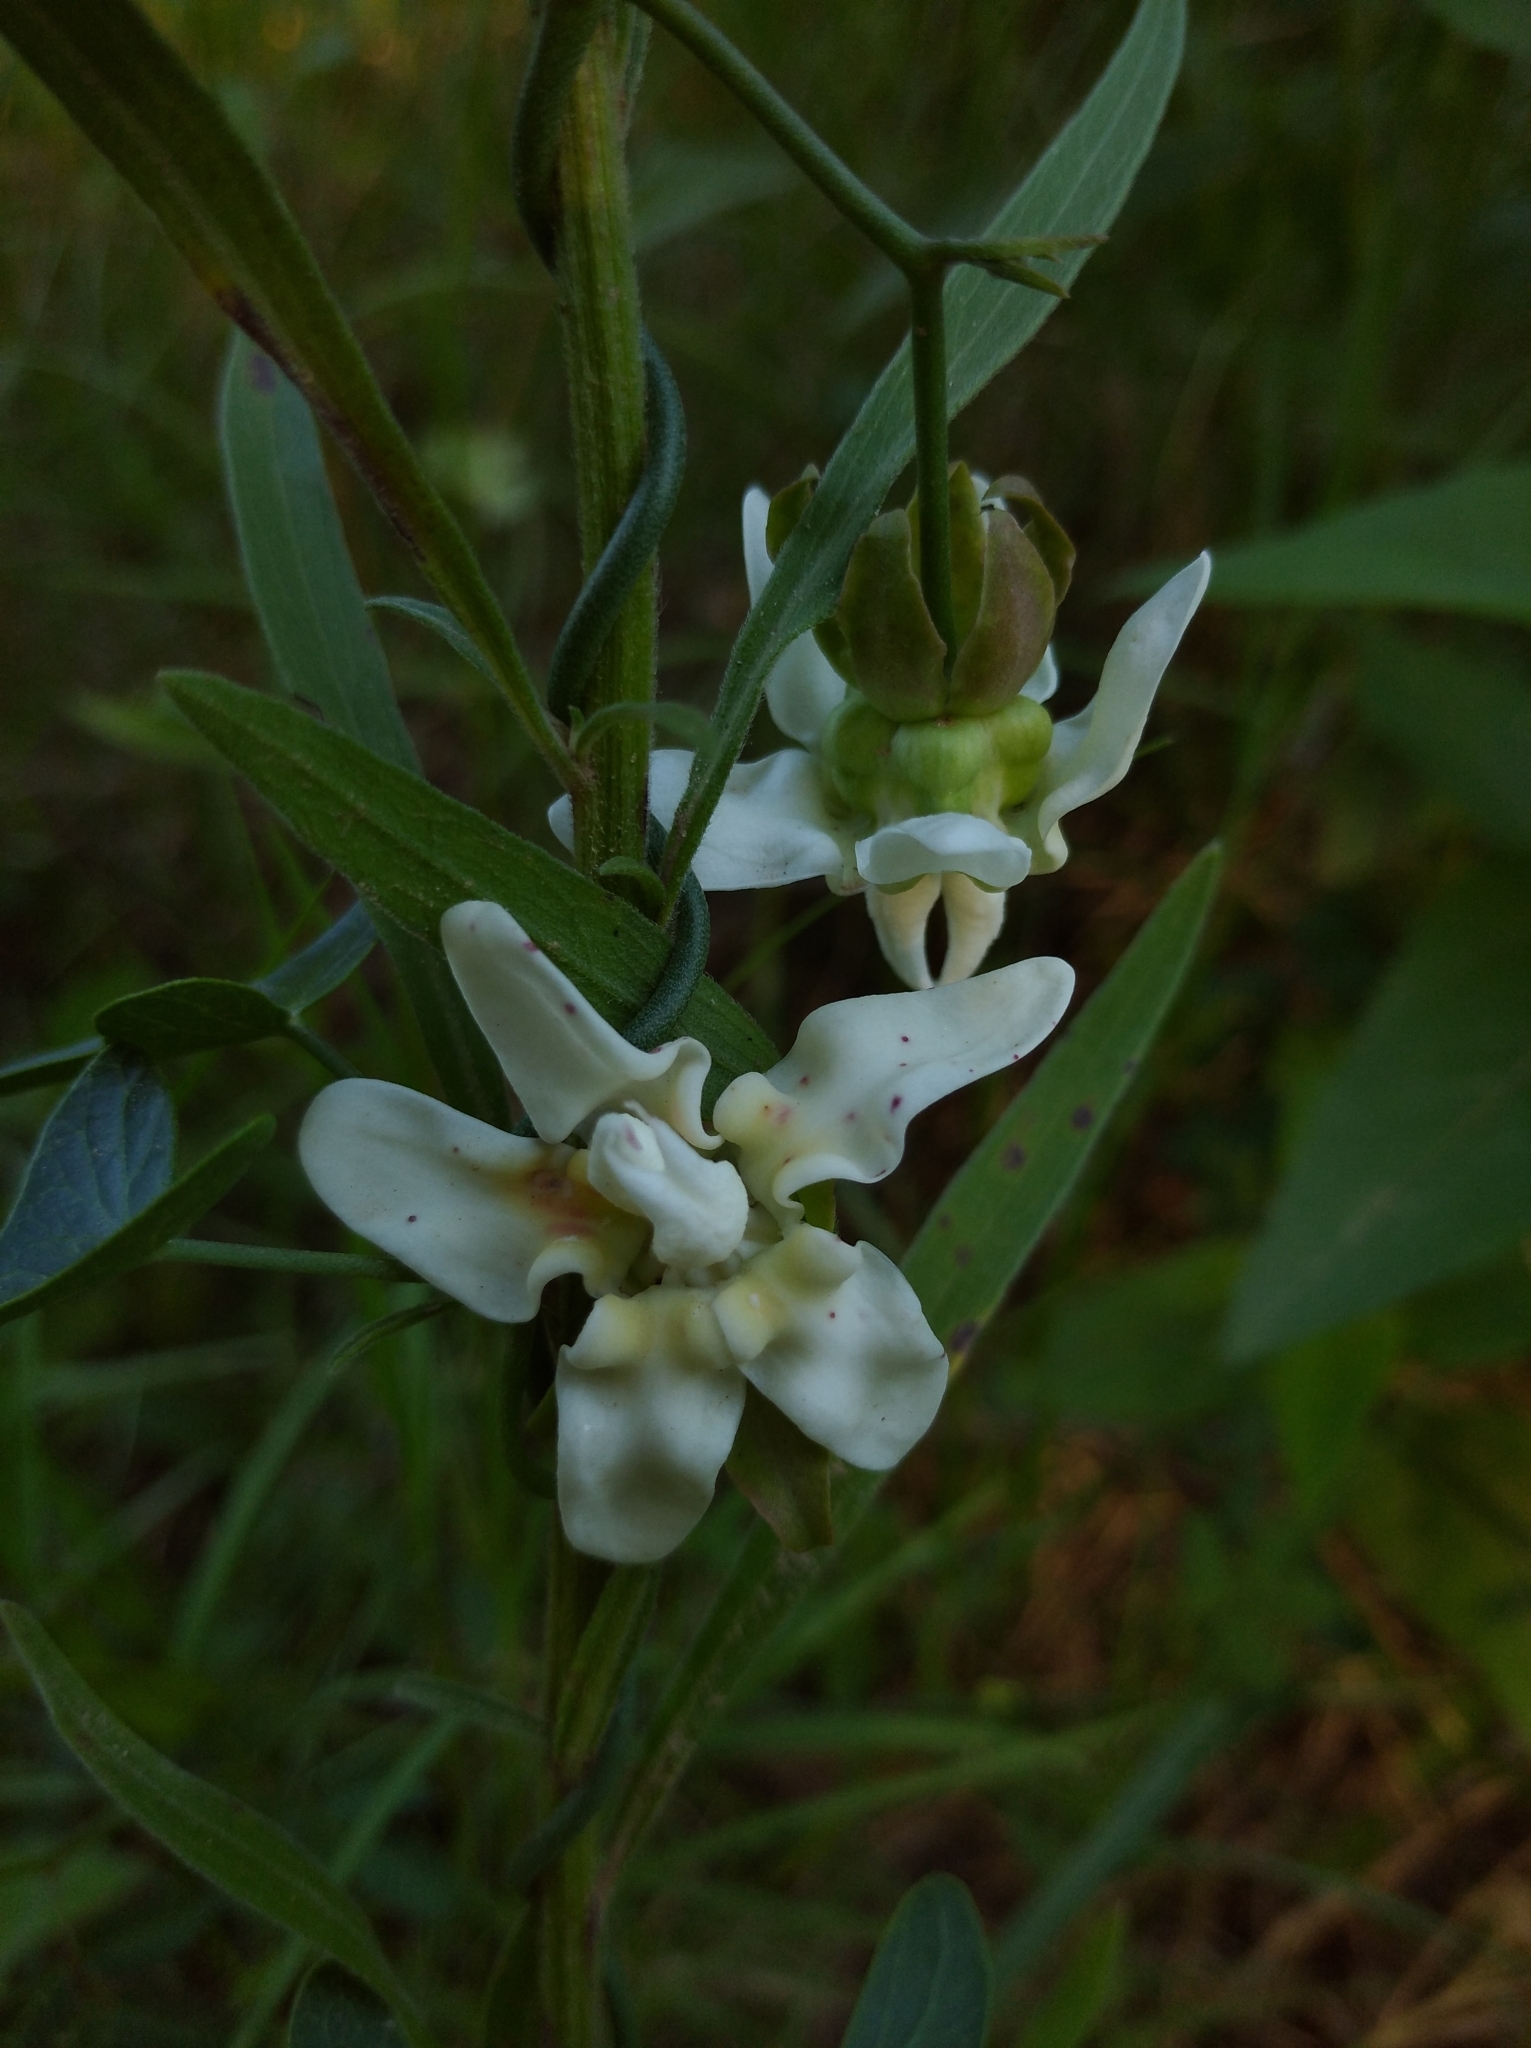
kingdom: Plantae
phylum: Tracheophyta
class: Magnoliopsida
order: Gentianales
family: Apocynaceae
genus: Araujia
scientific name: Araujia angustifolia
